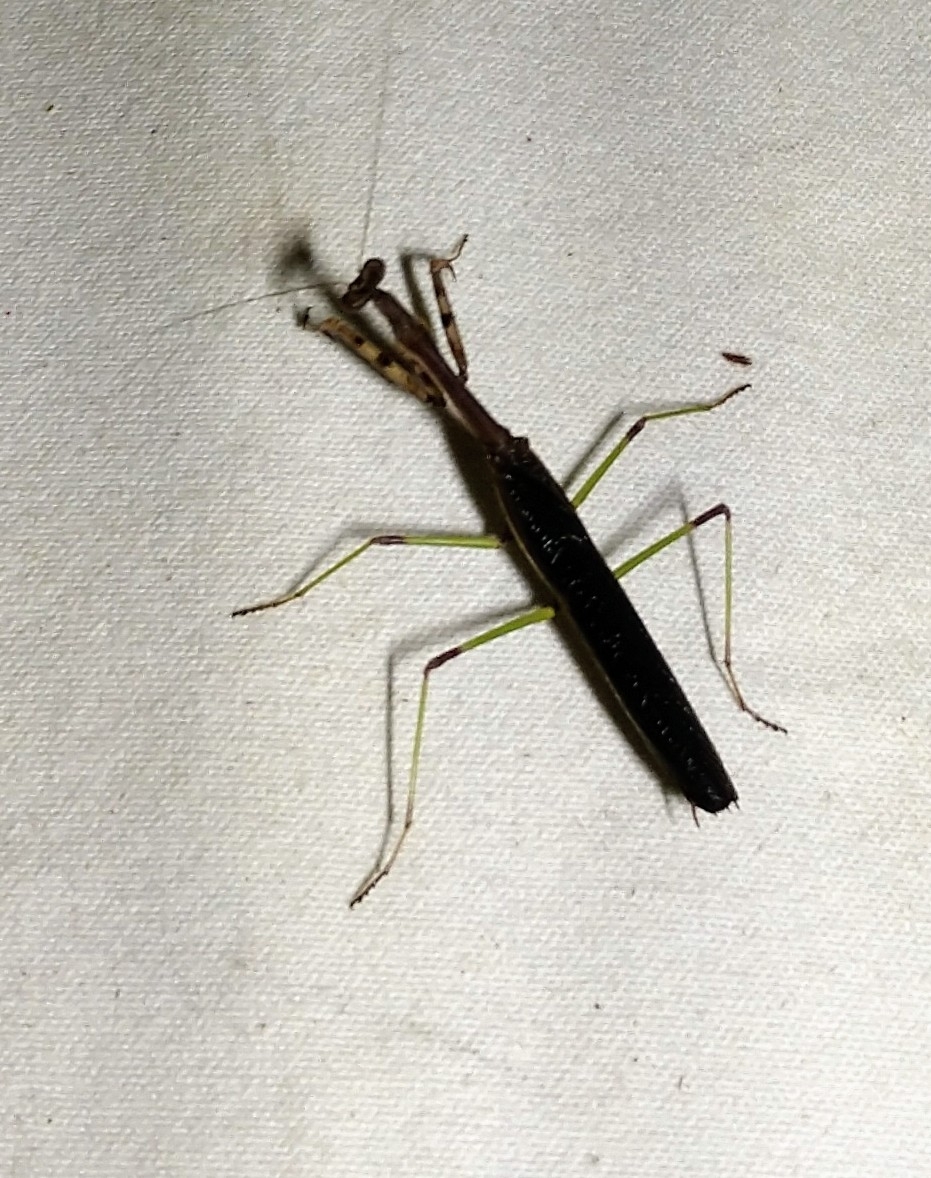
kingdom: Animalia
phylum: Arthropoda
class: Insecta
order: Mantodea
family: Mantidae
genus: Stagmomantis
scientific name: Stagmomantis carolina
